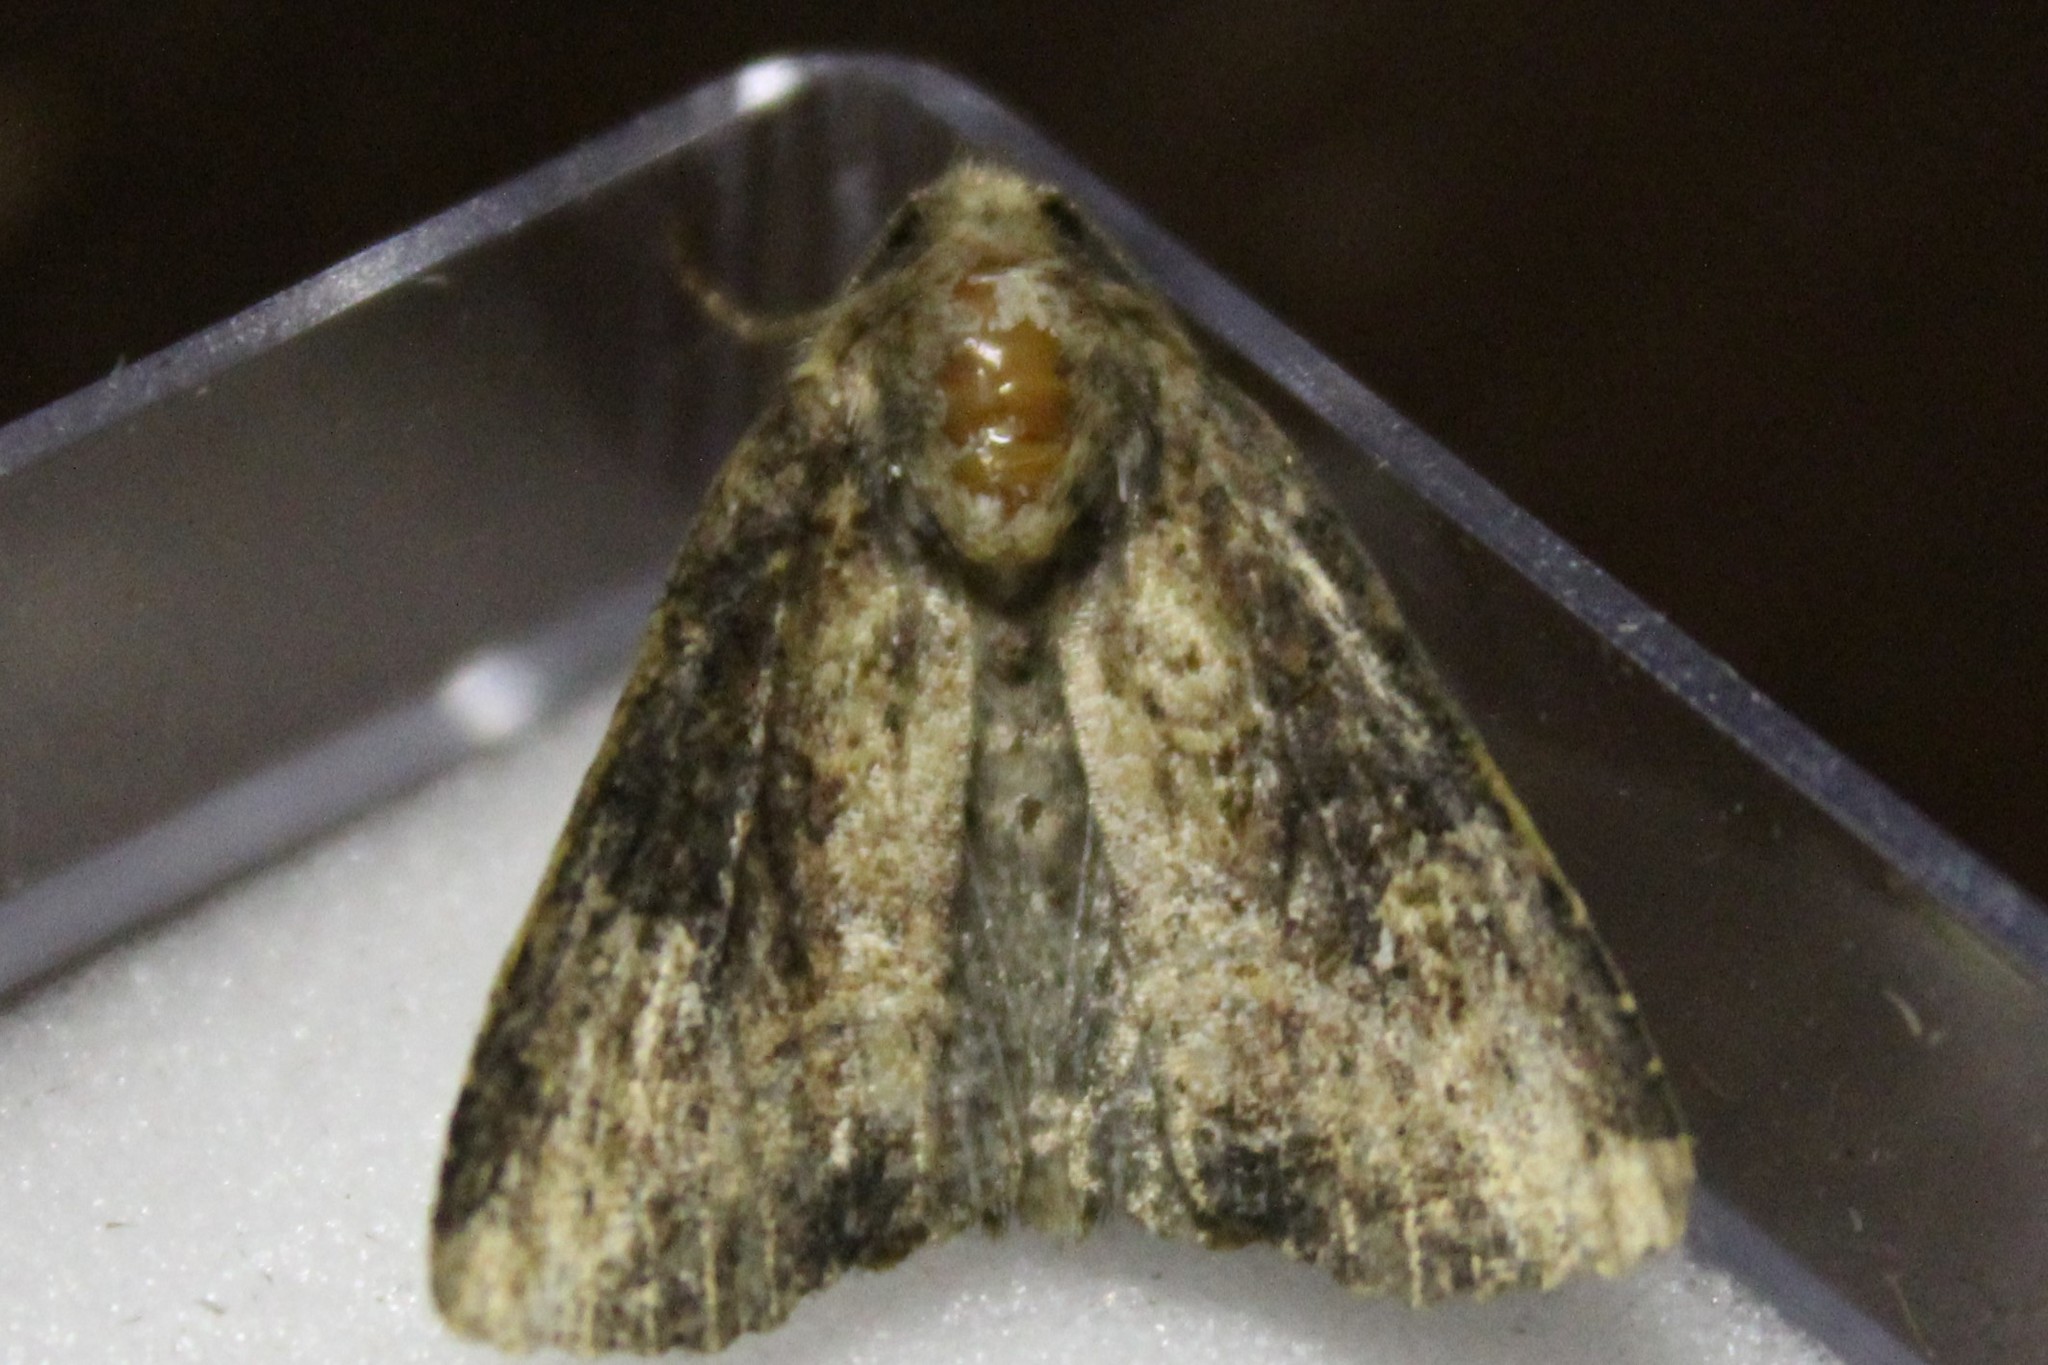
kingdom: Animalia
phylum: Arthropoda
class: Insecta
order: Lepidoptera
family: Noctuidae
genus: Mesapamea
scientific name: Mesapamea
